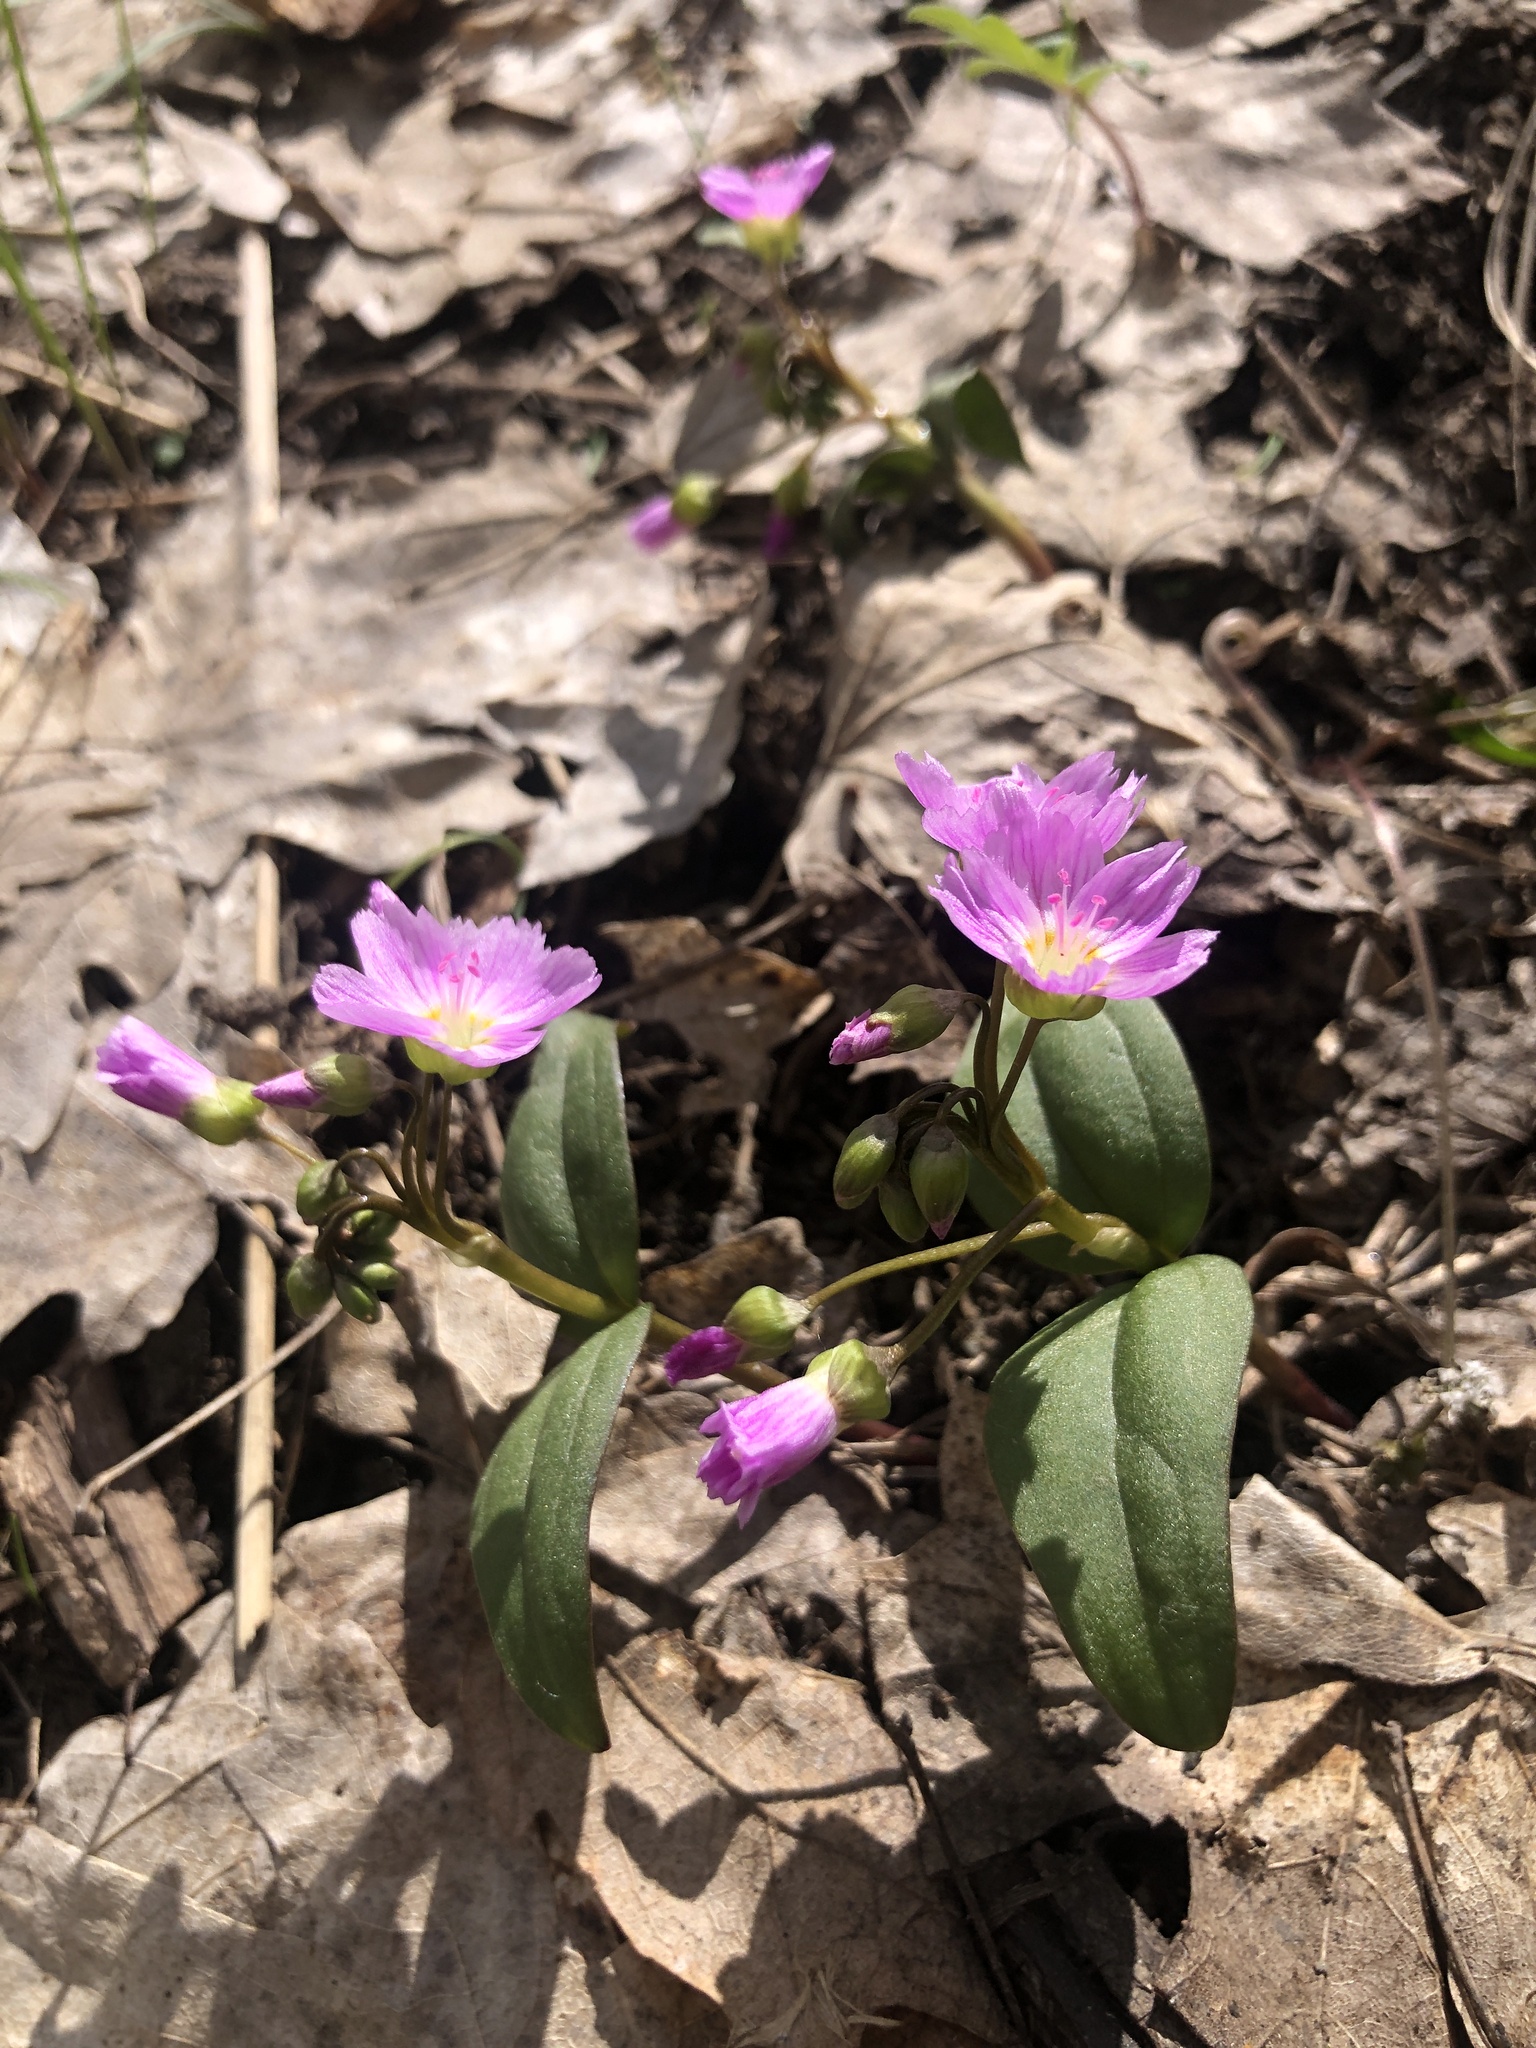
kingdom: Plantae
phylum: Tracheophyta
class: Magnoliopsida
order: Caryophyllales
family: Montiaceae
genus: Claytonia
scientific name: Claytonia lanceolata
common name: Western spring-beauty
